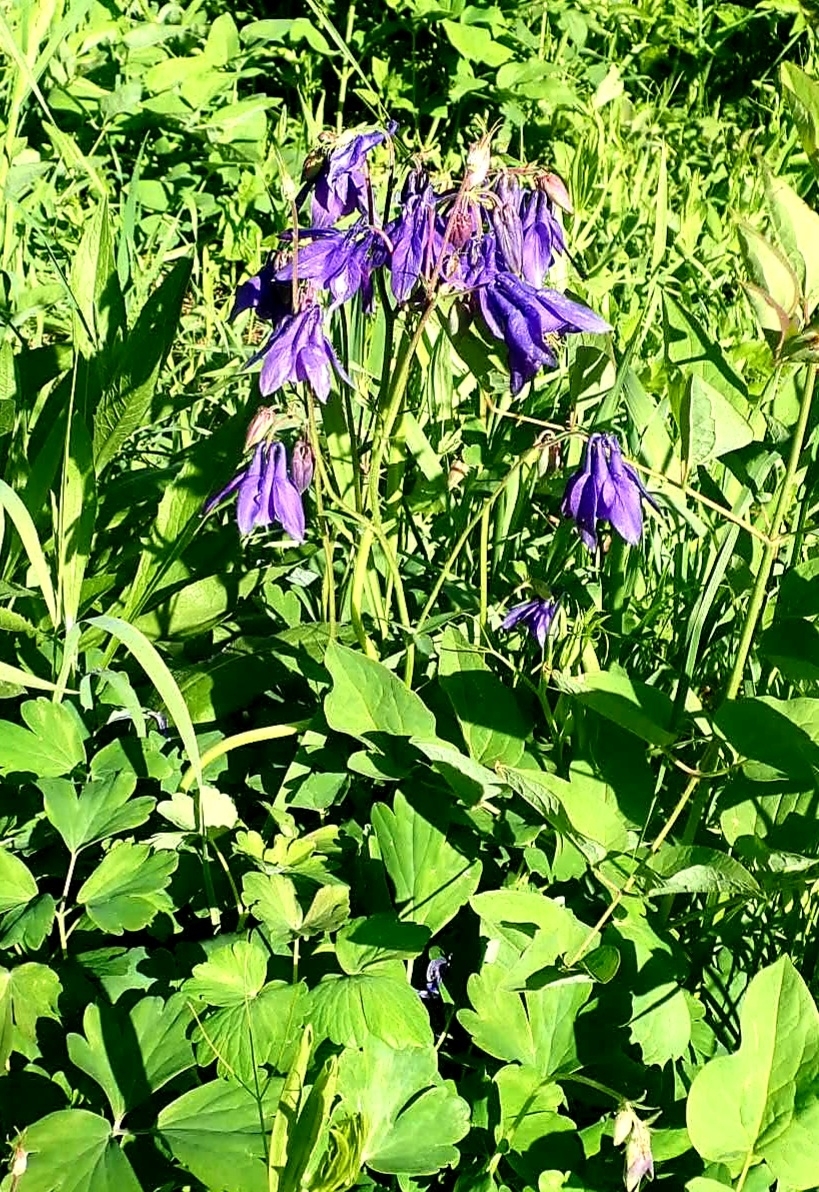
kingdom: Plantae
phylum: Tracheophyta
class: Magnoliopsida
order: Ranunculales
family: Ranunculaceae
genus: Aquilegia
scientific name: Aquilegia vulgaris
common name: Columbine
